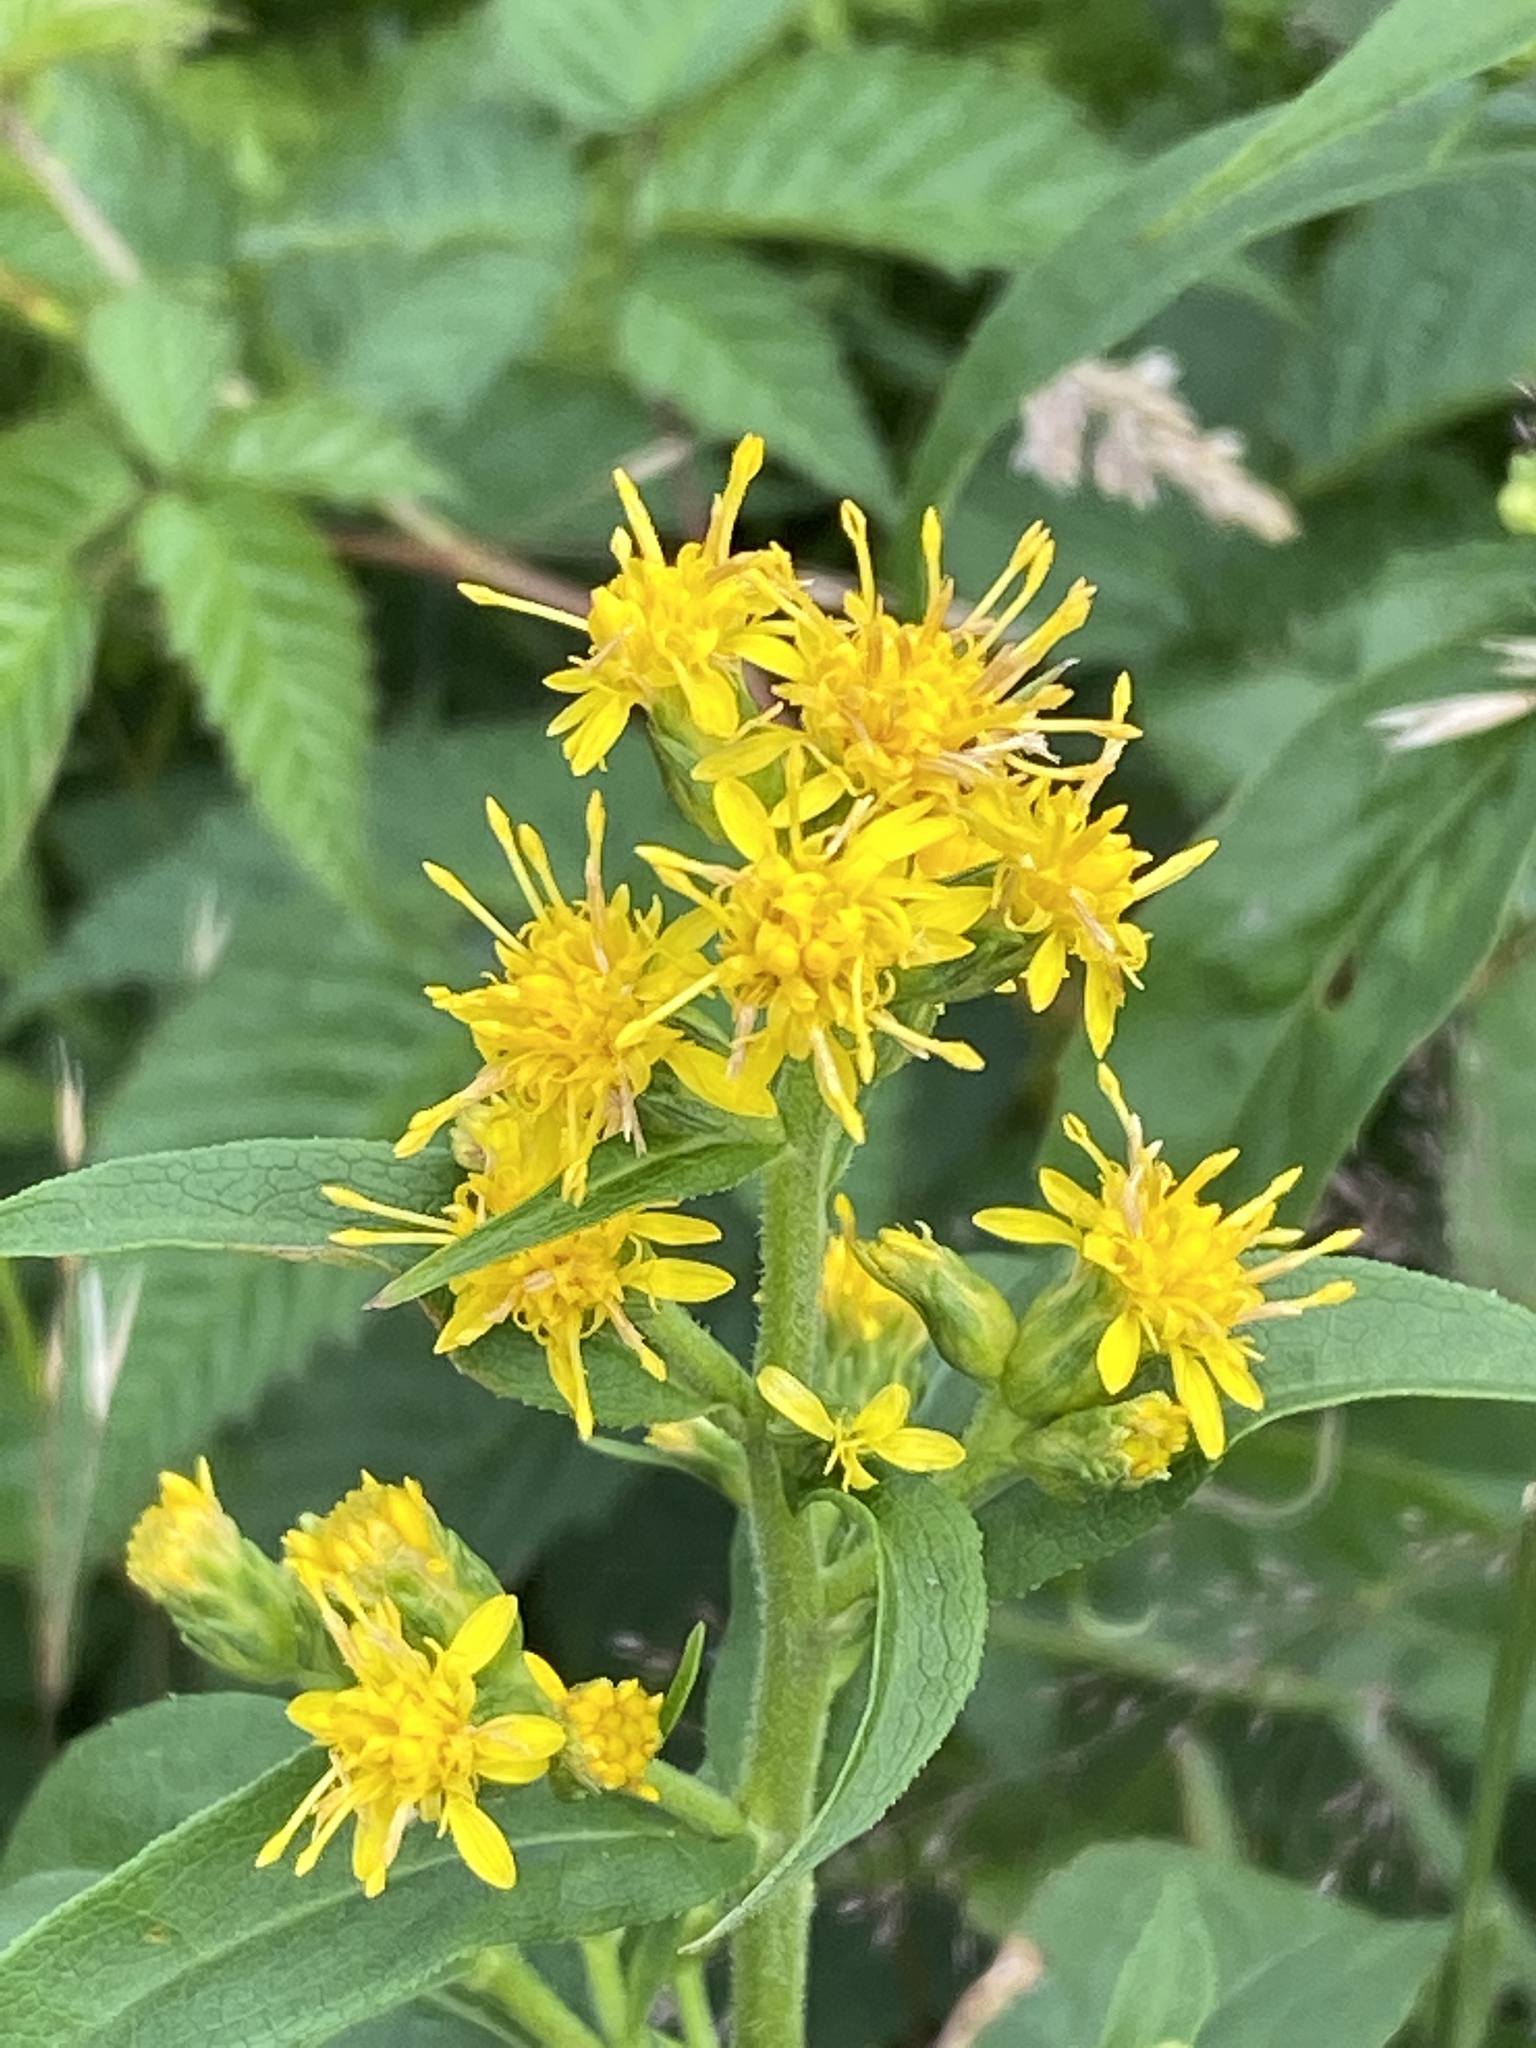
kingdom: Plantae
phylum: Tracheophyta
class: Magnoliopsida
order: Asterales
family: Asteraceae
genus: Solidago
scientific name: Solidago glomerata
